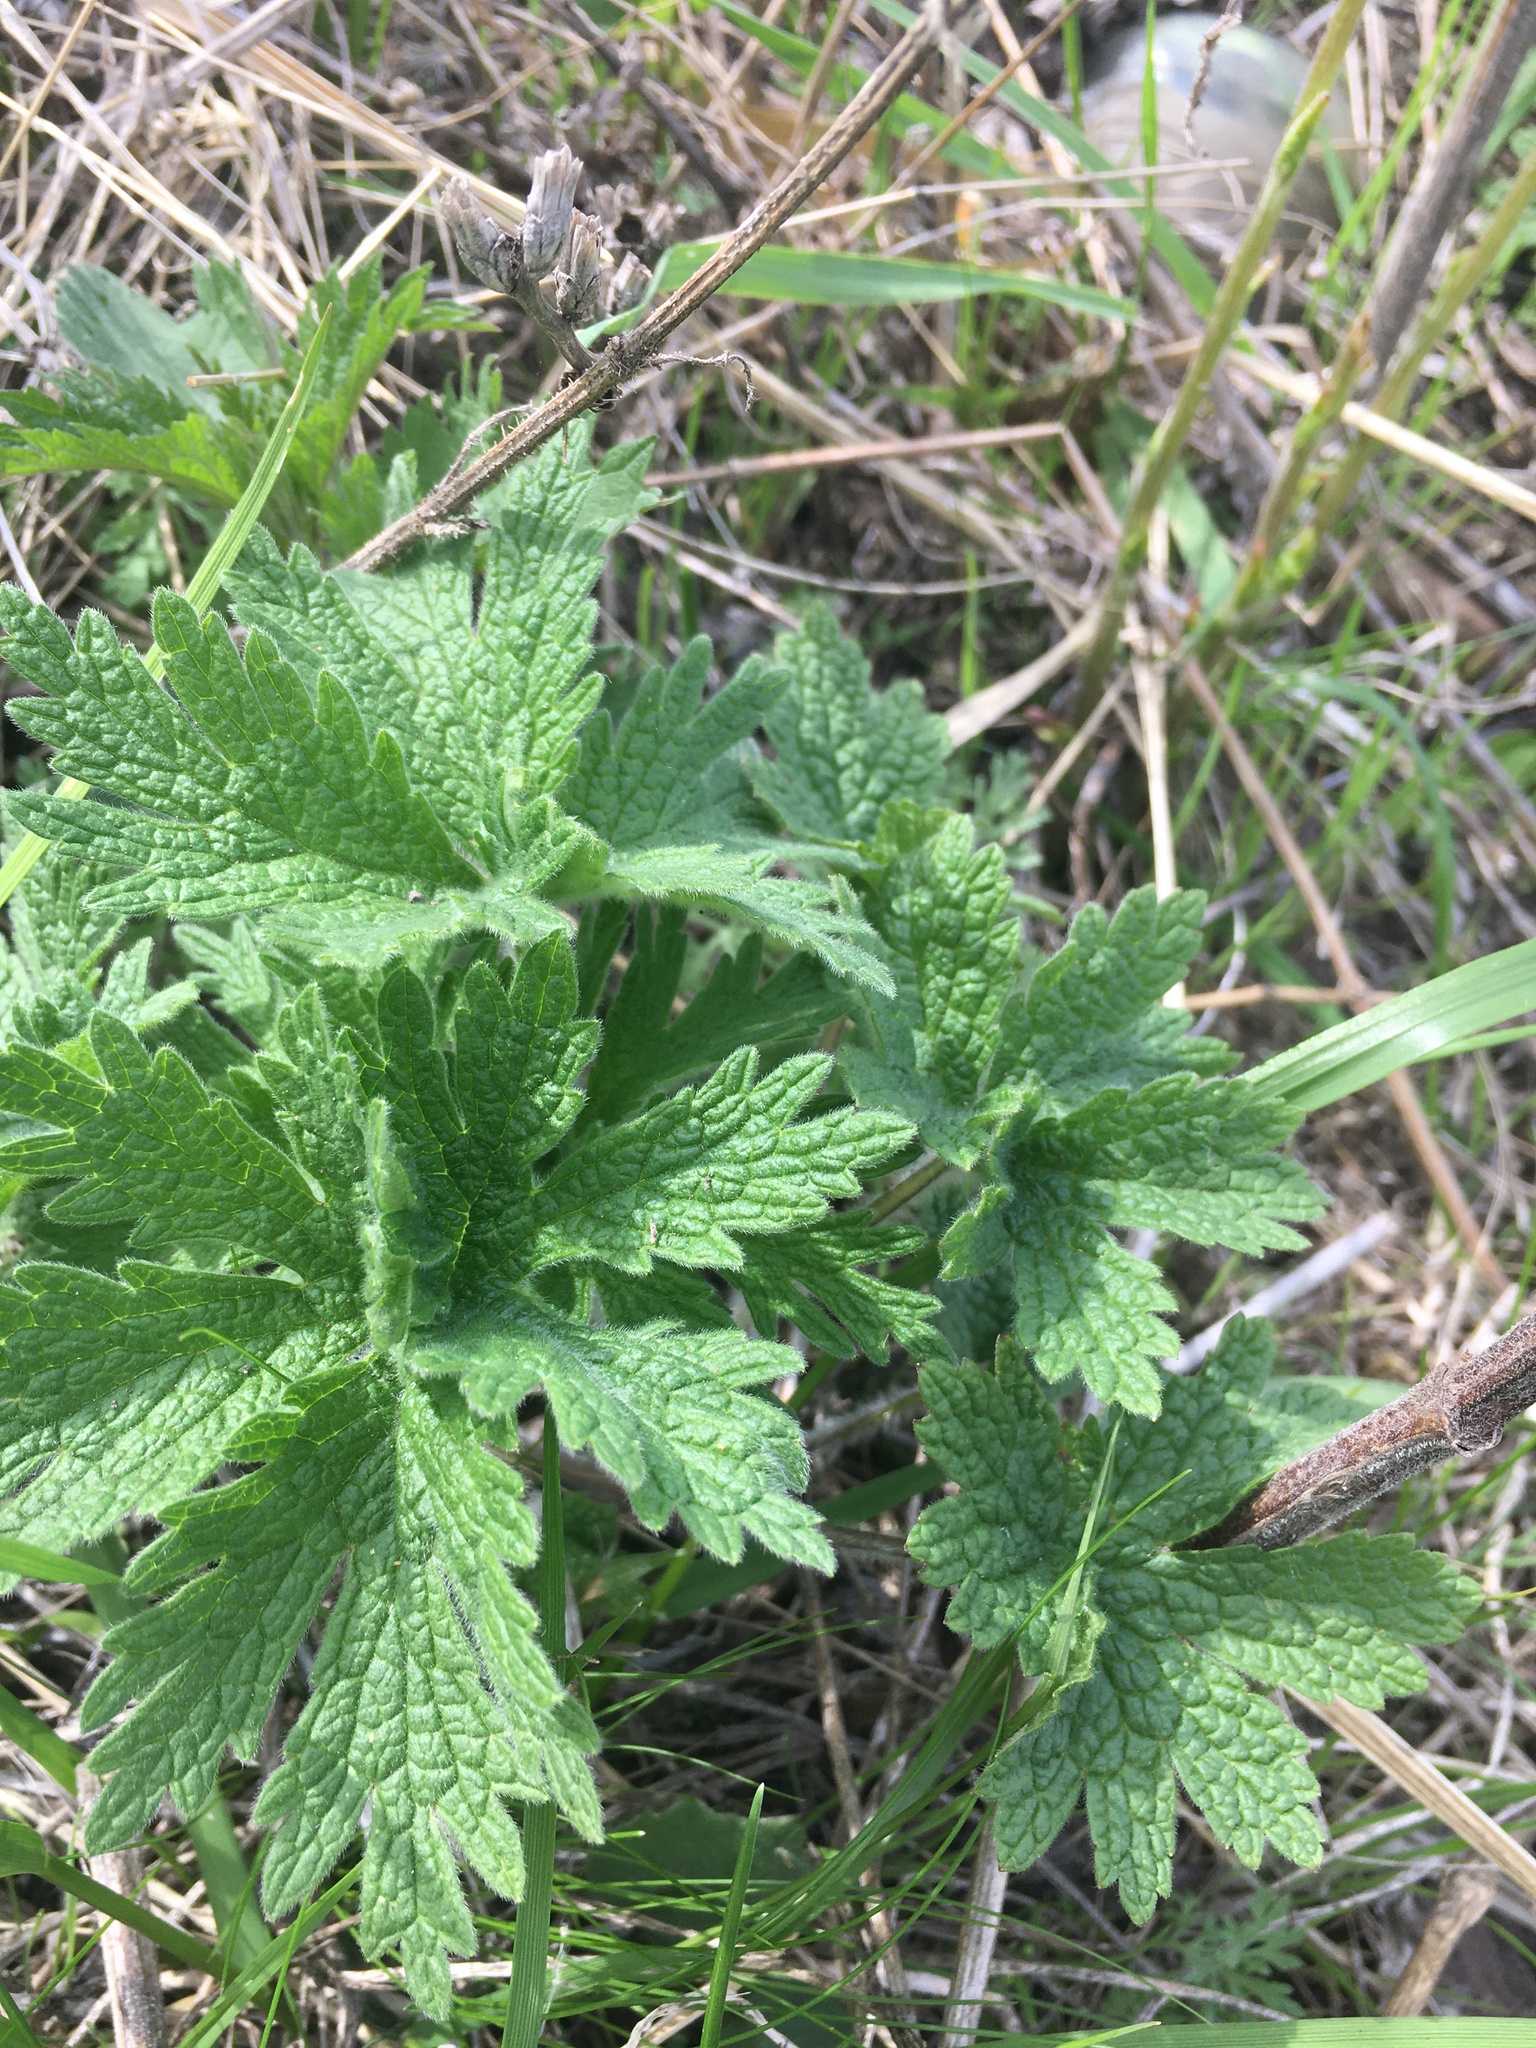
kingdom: Plantae
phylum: Tracheophyta
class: Magnoliopsida
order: Lamiales
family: Lamiaceae
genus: Leonurus
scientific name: Leonurus quinquelobatus
